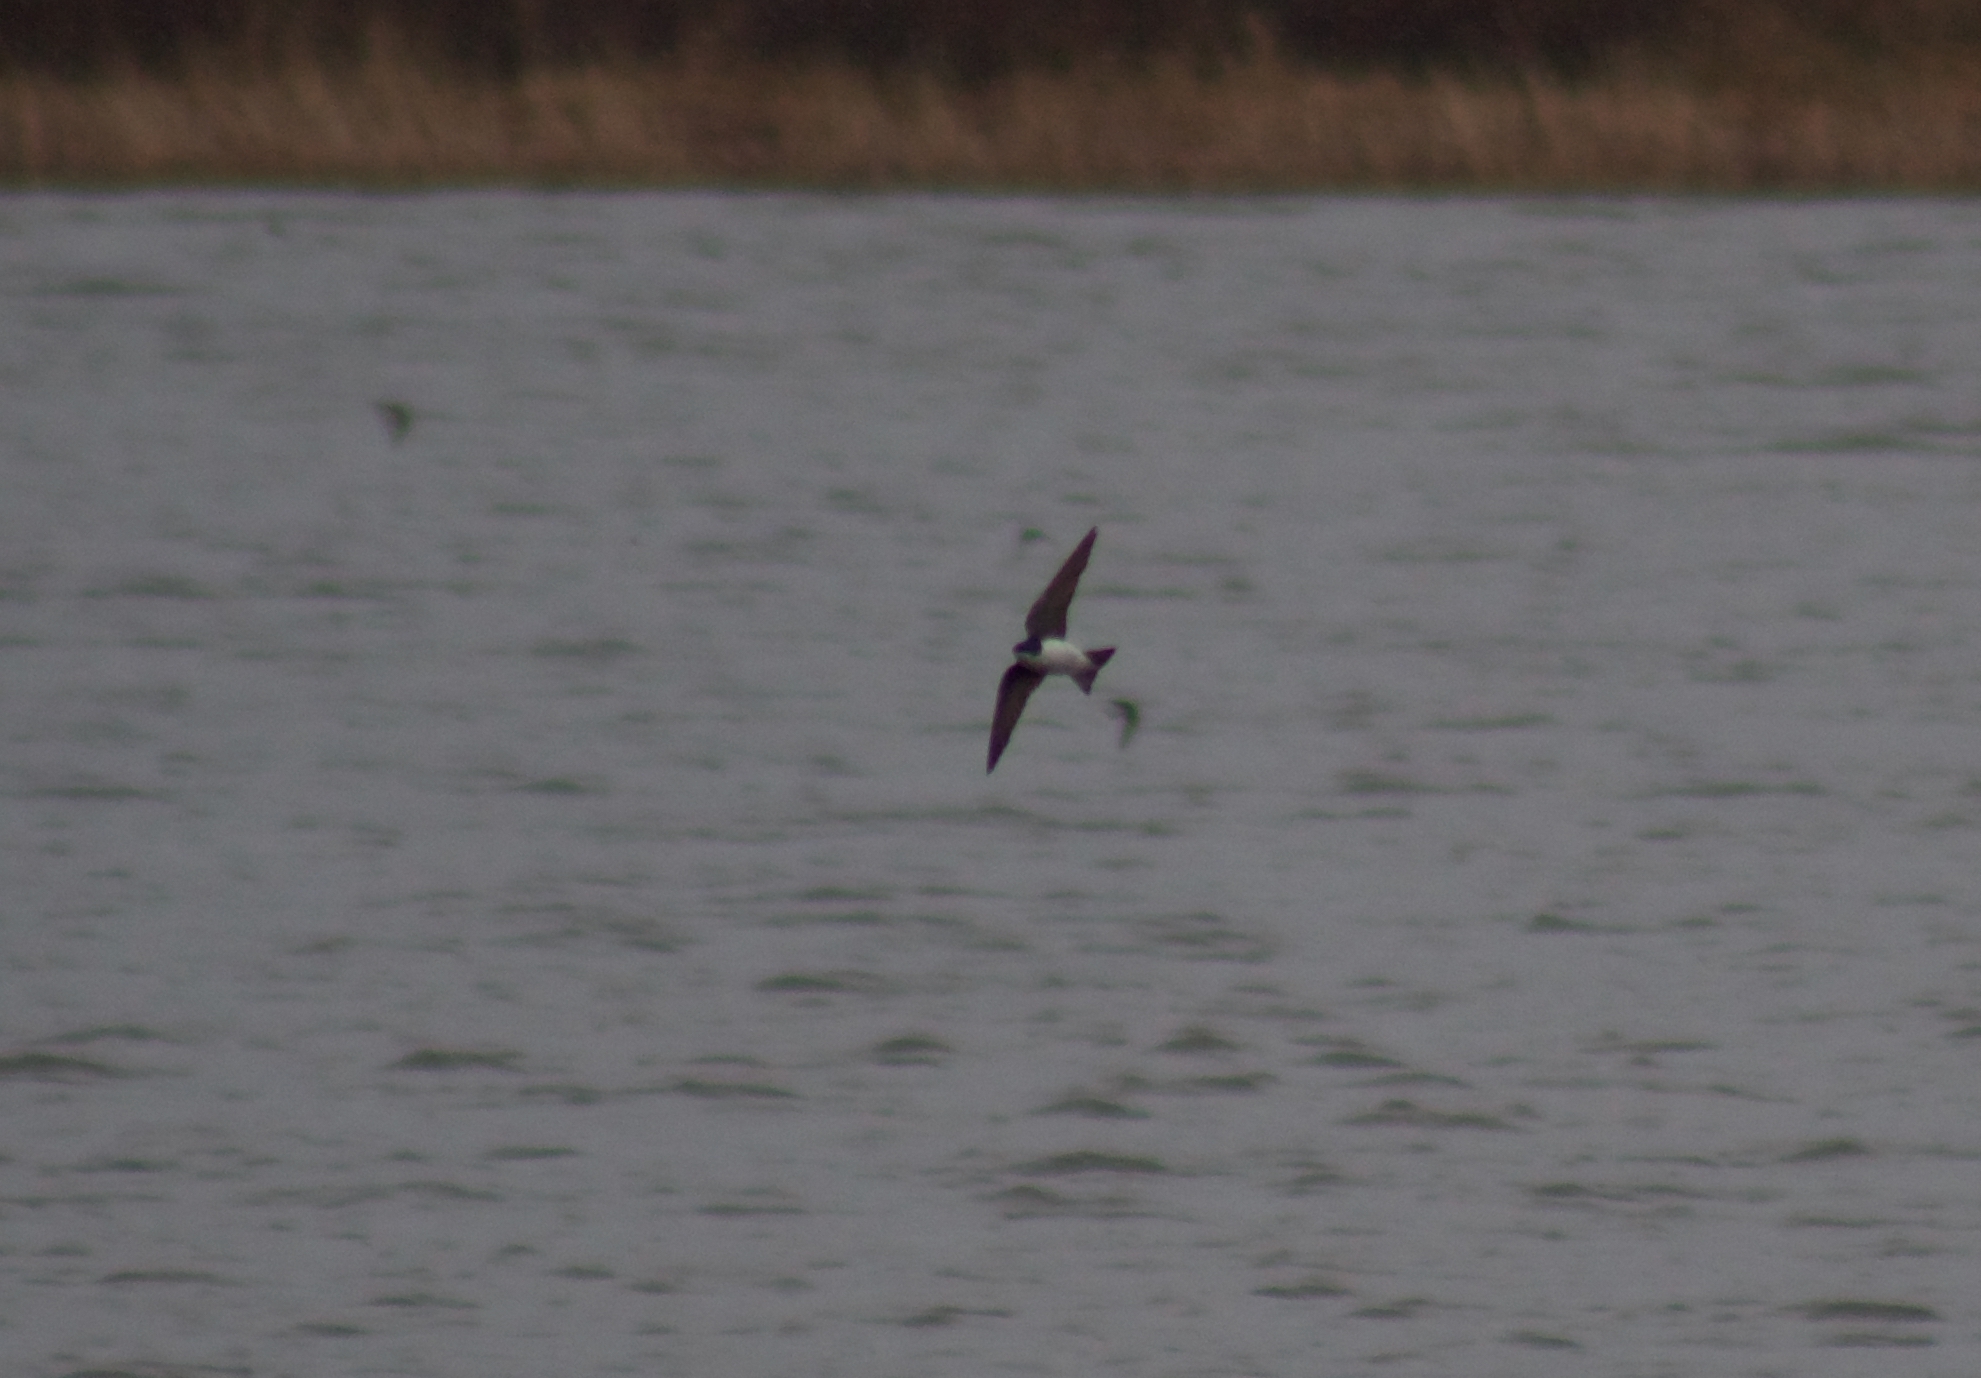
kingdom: Animalia
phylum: Chordata
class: Aves
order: Passeriformes
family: Hirundinidae
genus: Tachycineta
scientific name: Tachycineta bicolor
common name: Tree swallow
